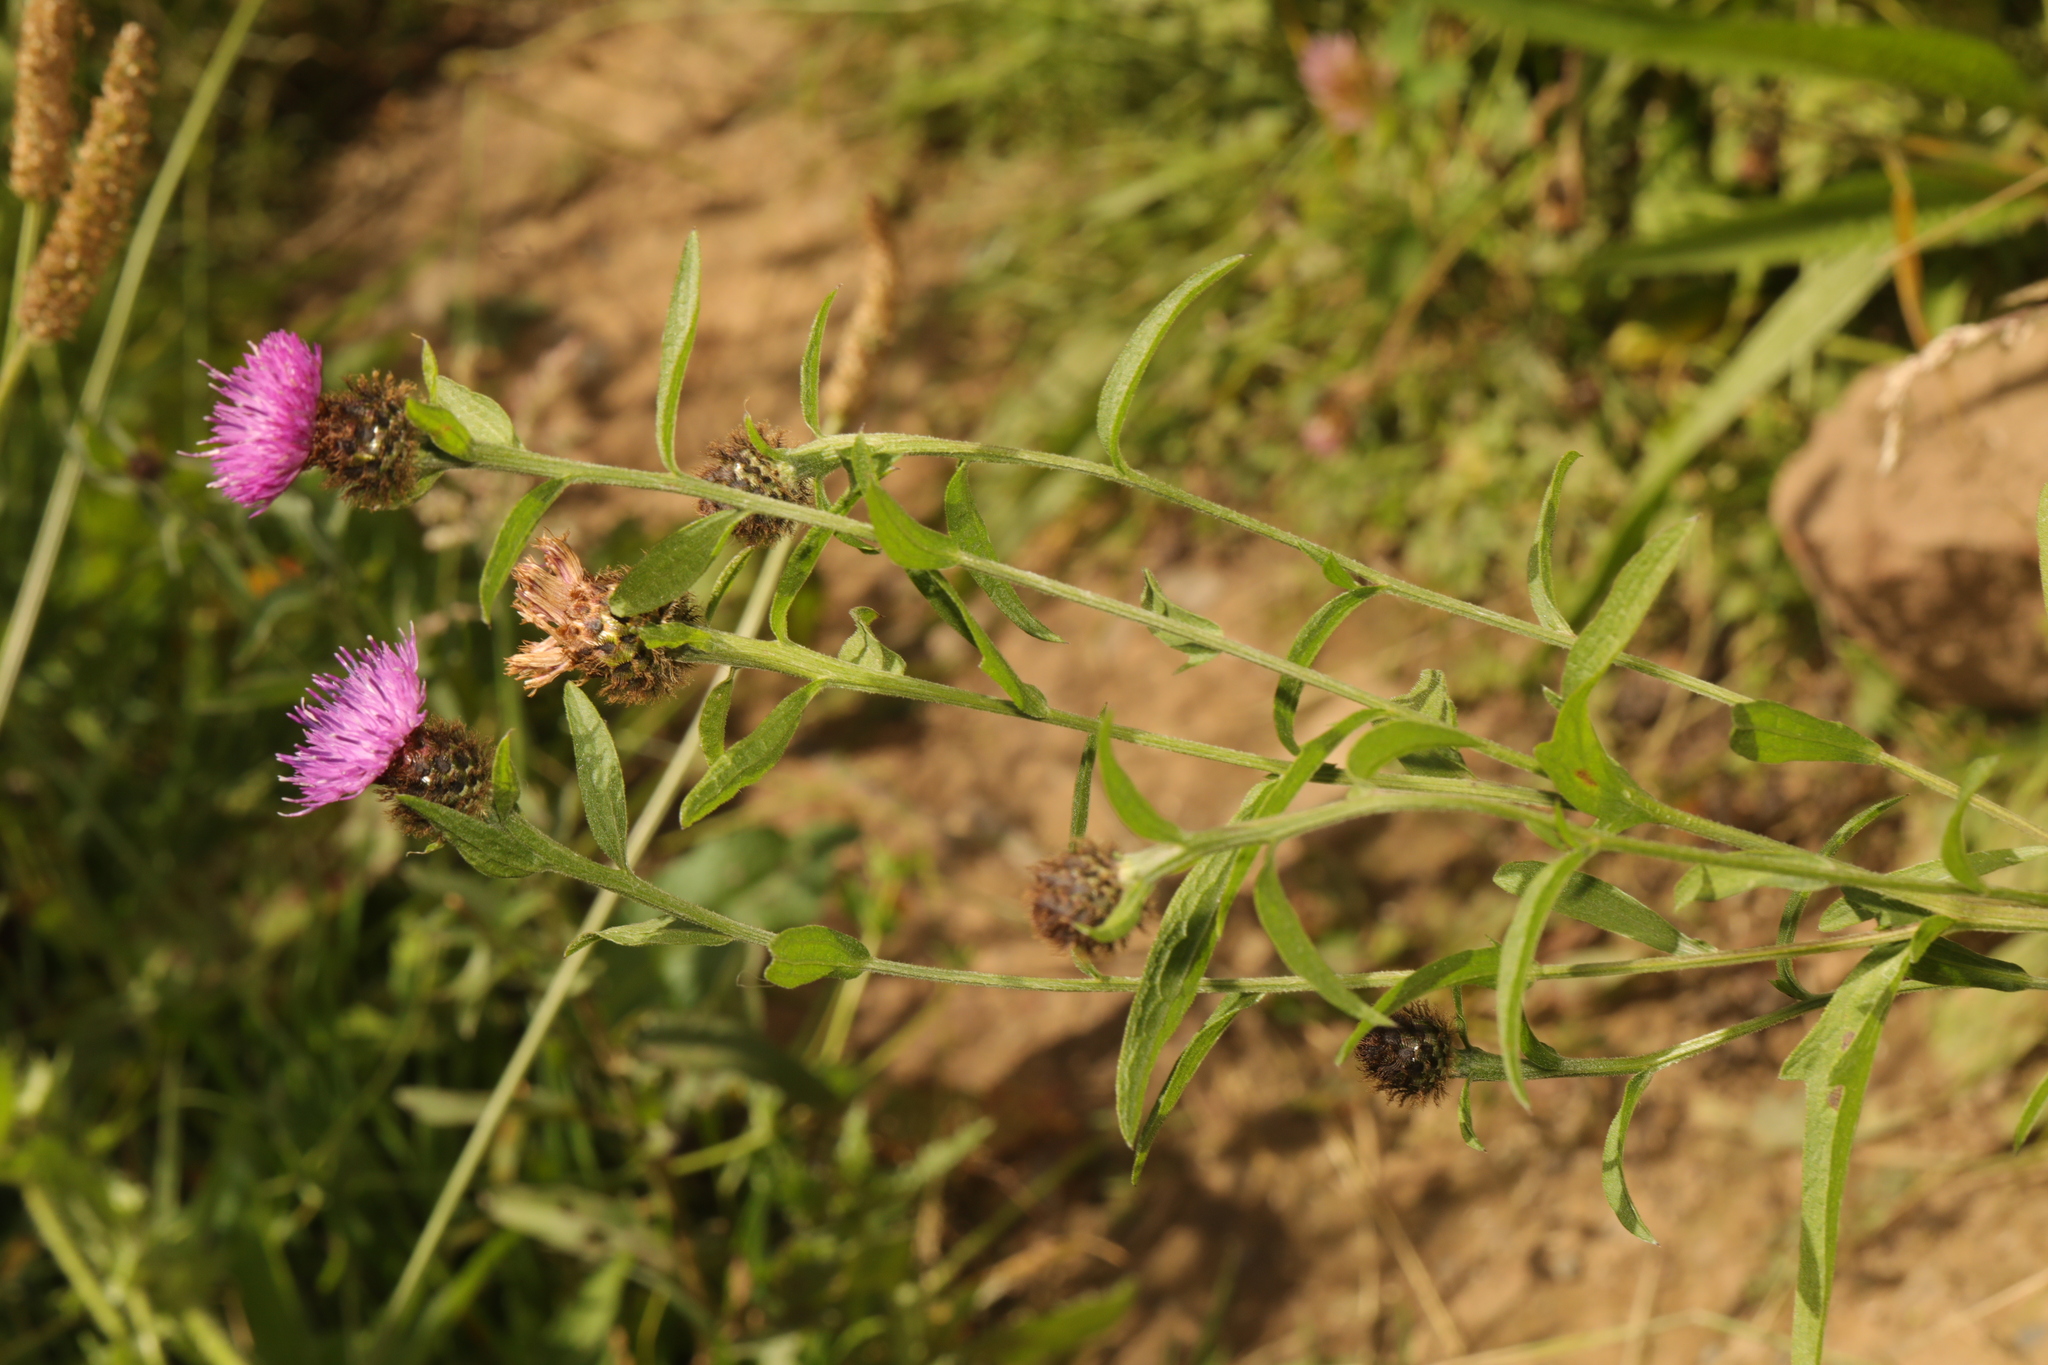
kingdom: Plantae
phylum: Tracheophyta
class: Magnoliopsida
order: Asterales
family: Asteraceae
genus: Centaurea
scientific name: Centaurea nigra
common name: Lesser knapweed
